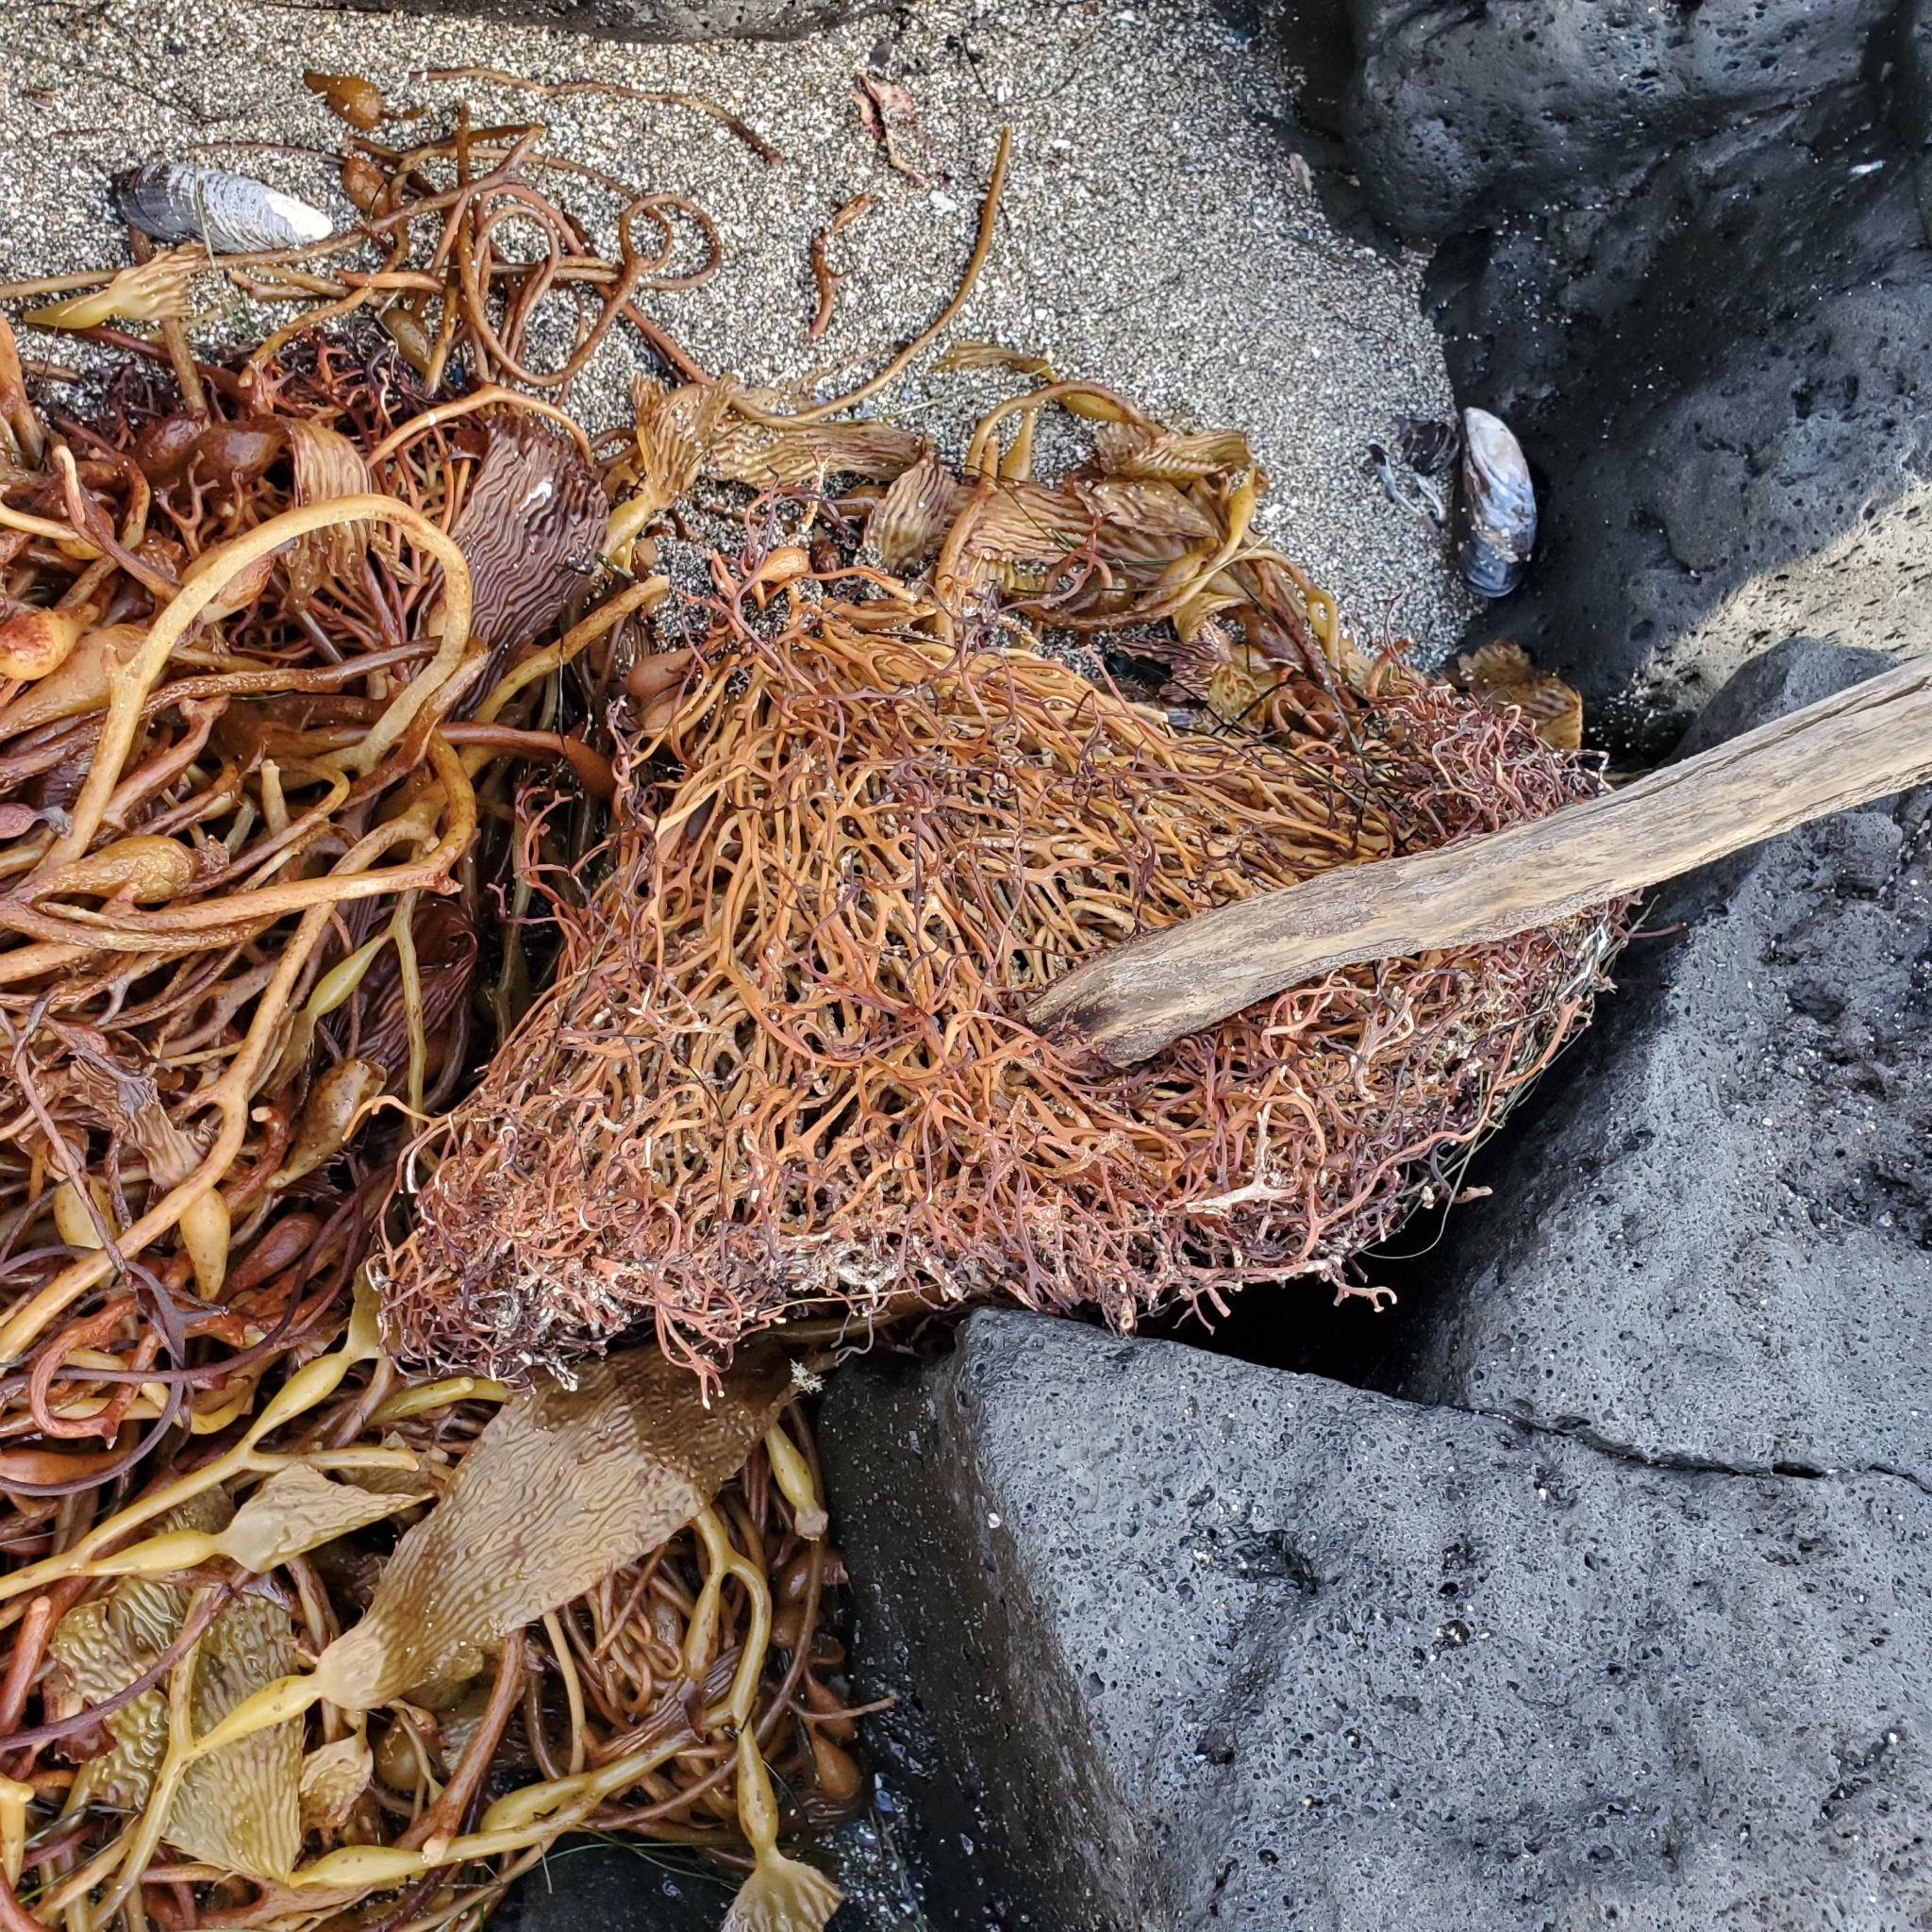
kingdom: Chromista
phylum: Ochrophyta
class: Phaeophyceae
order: Laminariales
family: Laminariaceae
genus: Macrocystis
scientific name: Macrocystis pyrifera
